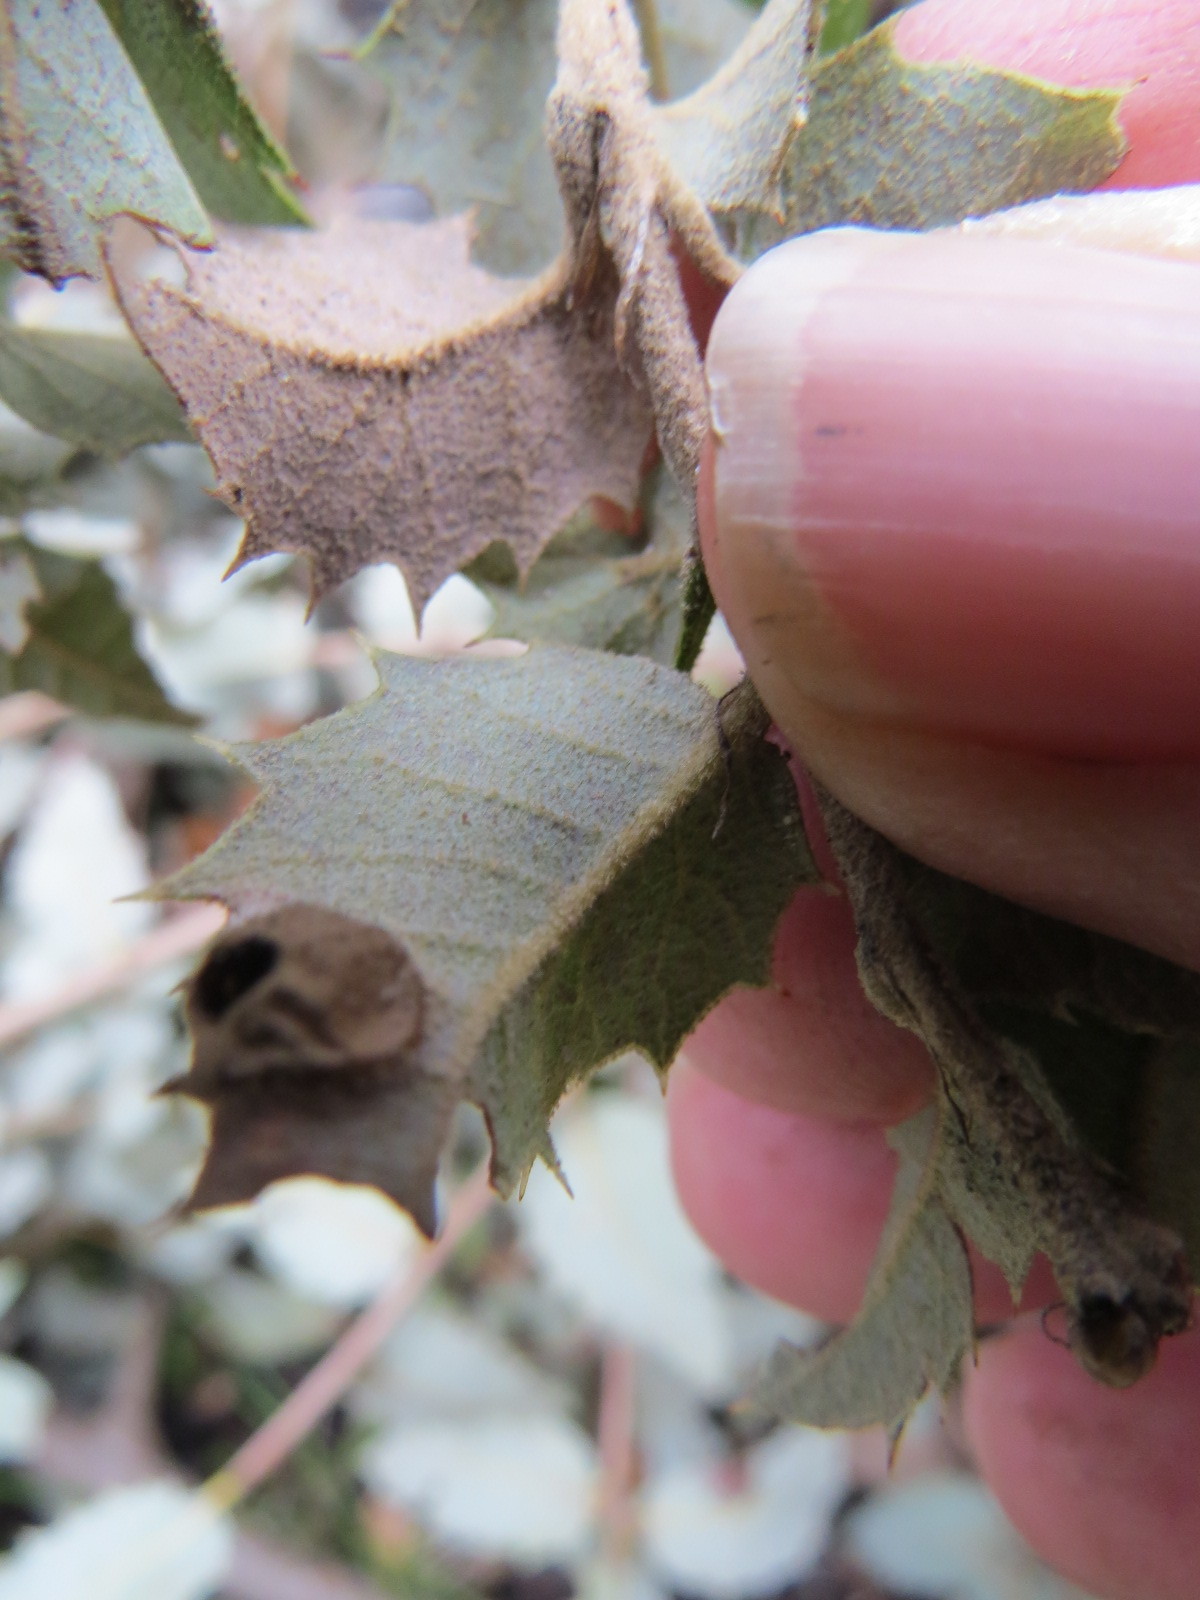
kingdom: Animalia
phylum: Arthropoda
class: Insecta
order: Hymenoptera
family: Cynipidae
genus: Heteroecus
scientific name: Heteroecus
